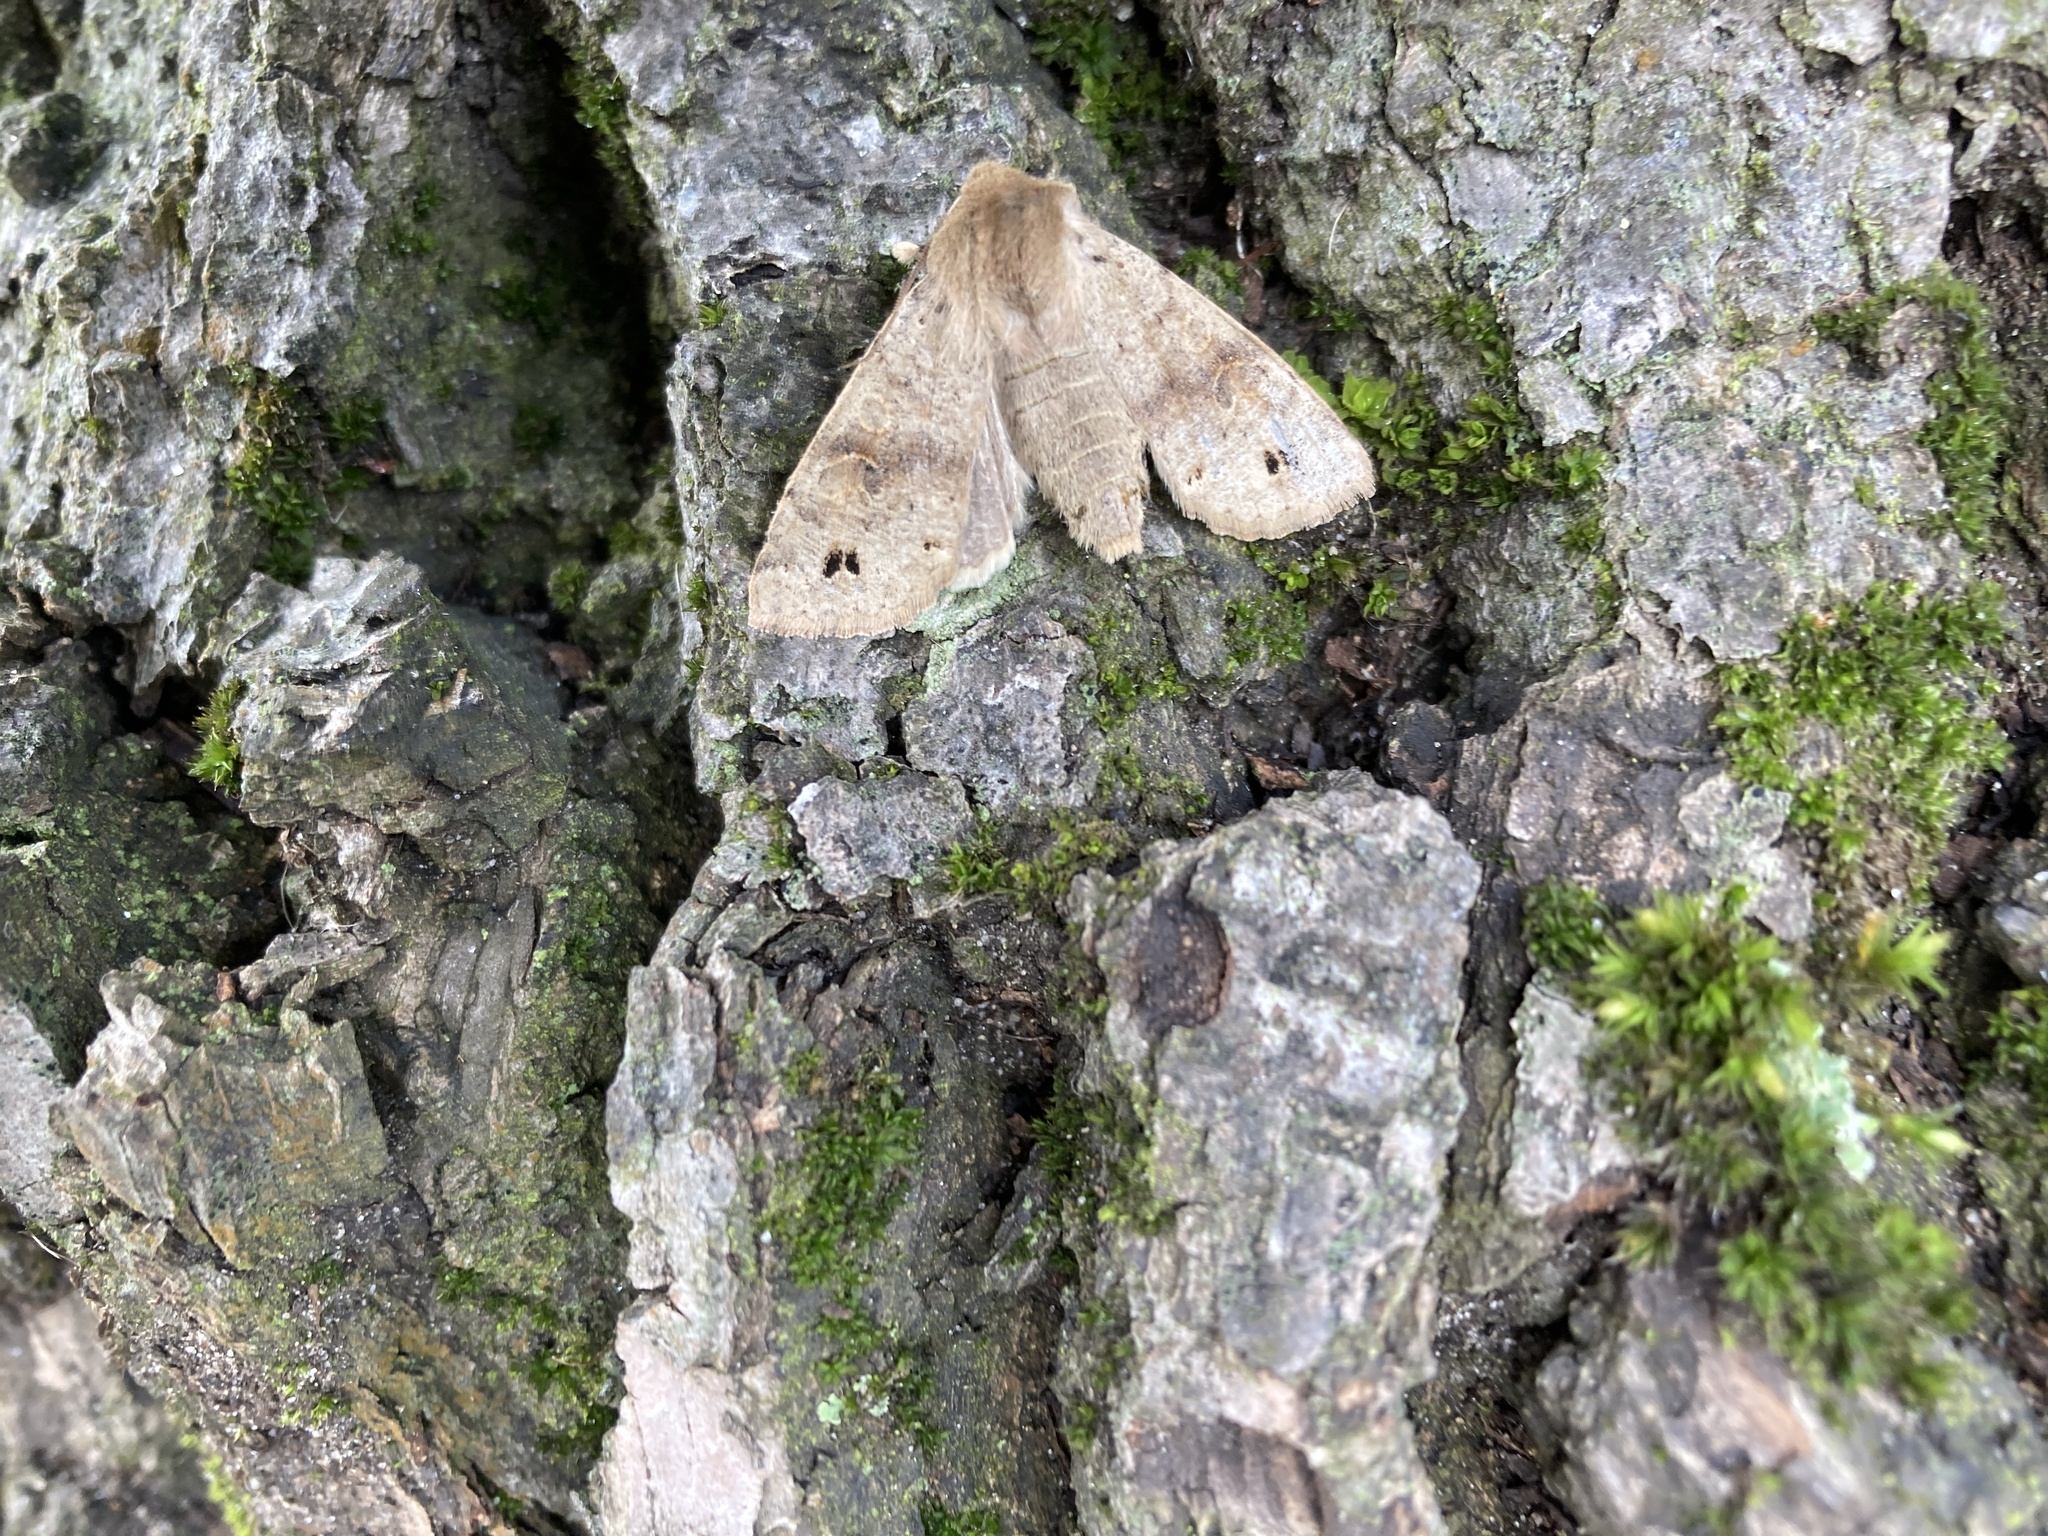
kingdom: Animalia
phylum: Arthropoda
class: Insecta
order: Lepidoptera
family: Noctuidae
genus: Anorthoa
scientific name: Anorthoa munda
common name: Twin-spotted quaker
